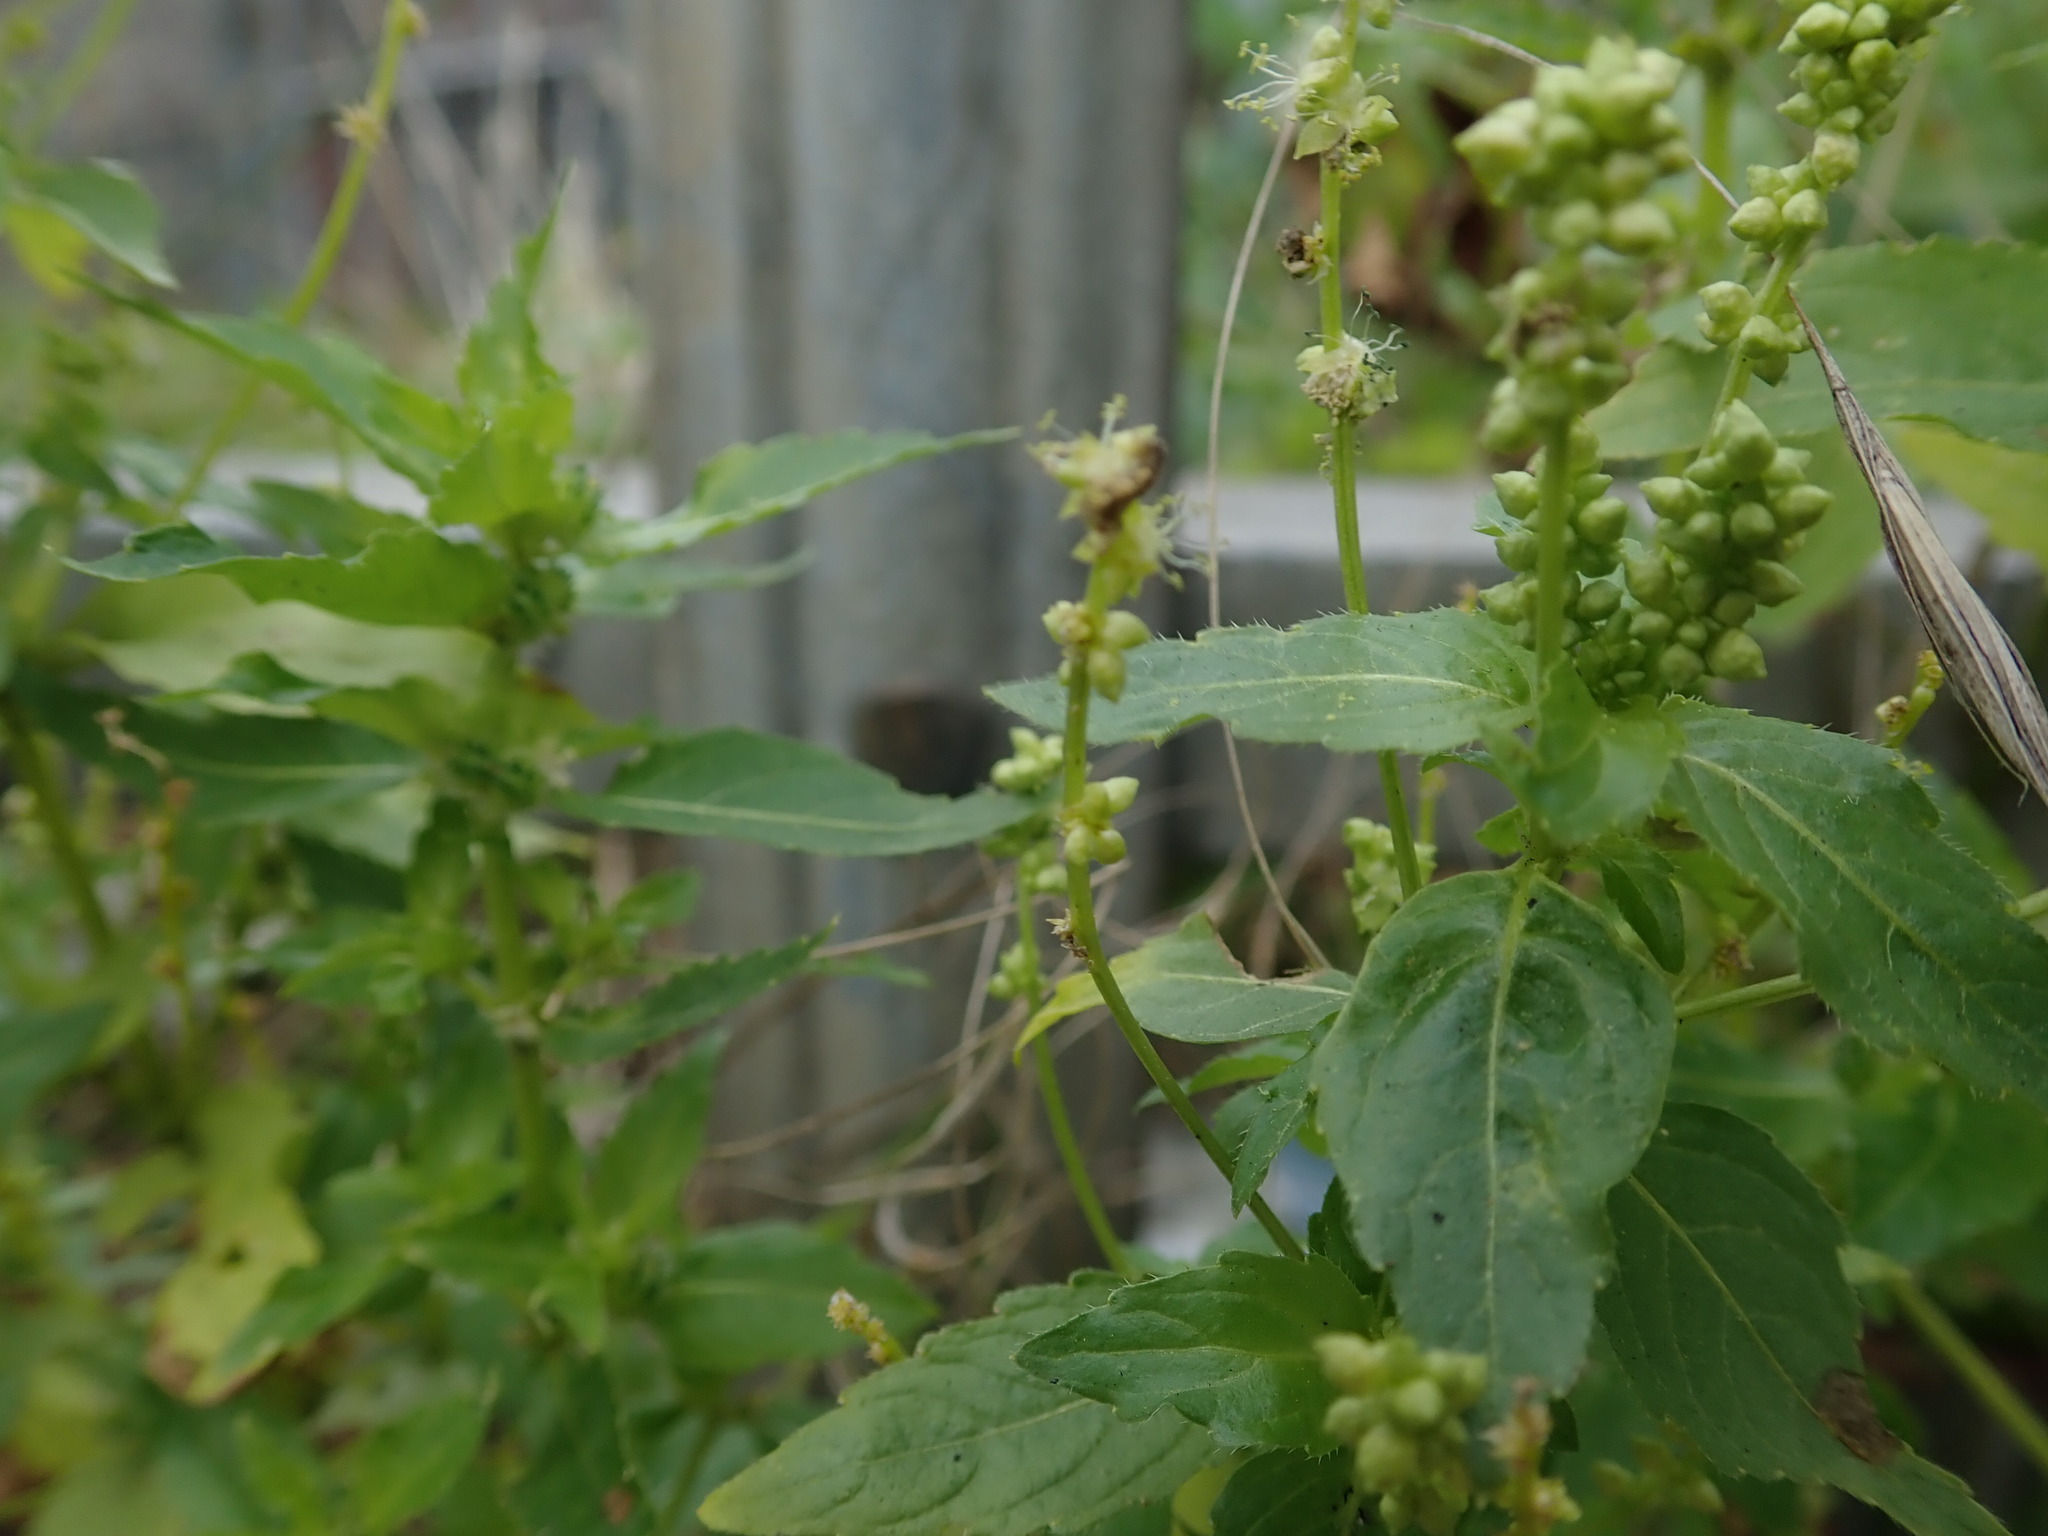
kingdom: Plantae
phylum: Tracheophyta
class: Magnoliopsida
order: Malpighiales
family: Euphorbiaceae
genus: Mercurialis
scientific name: Mercurialis annua
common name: Annual mercury
